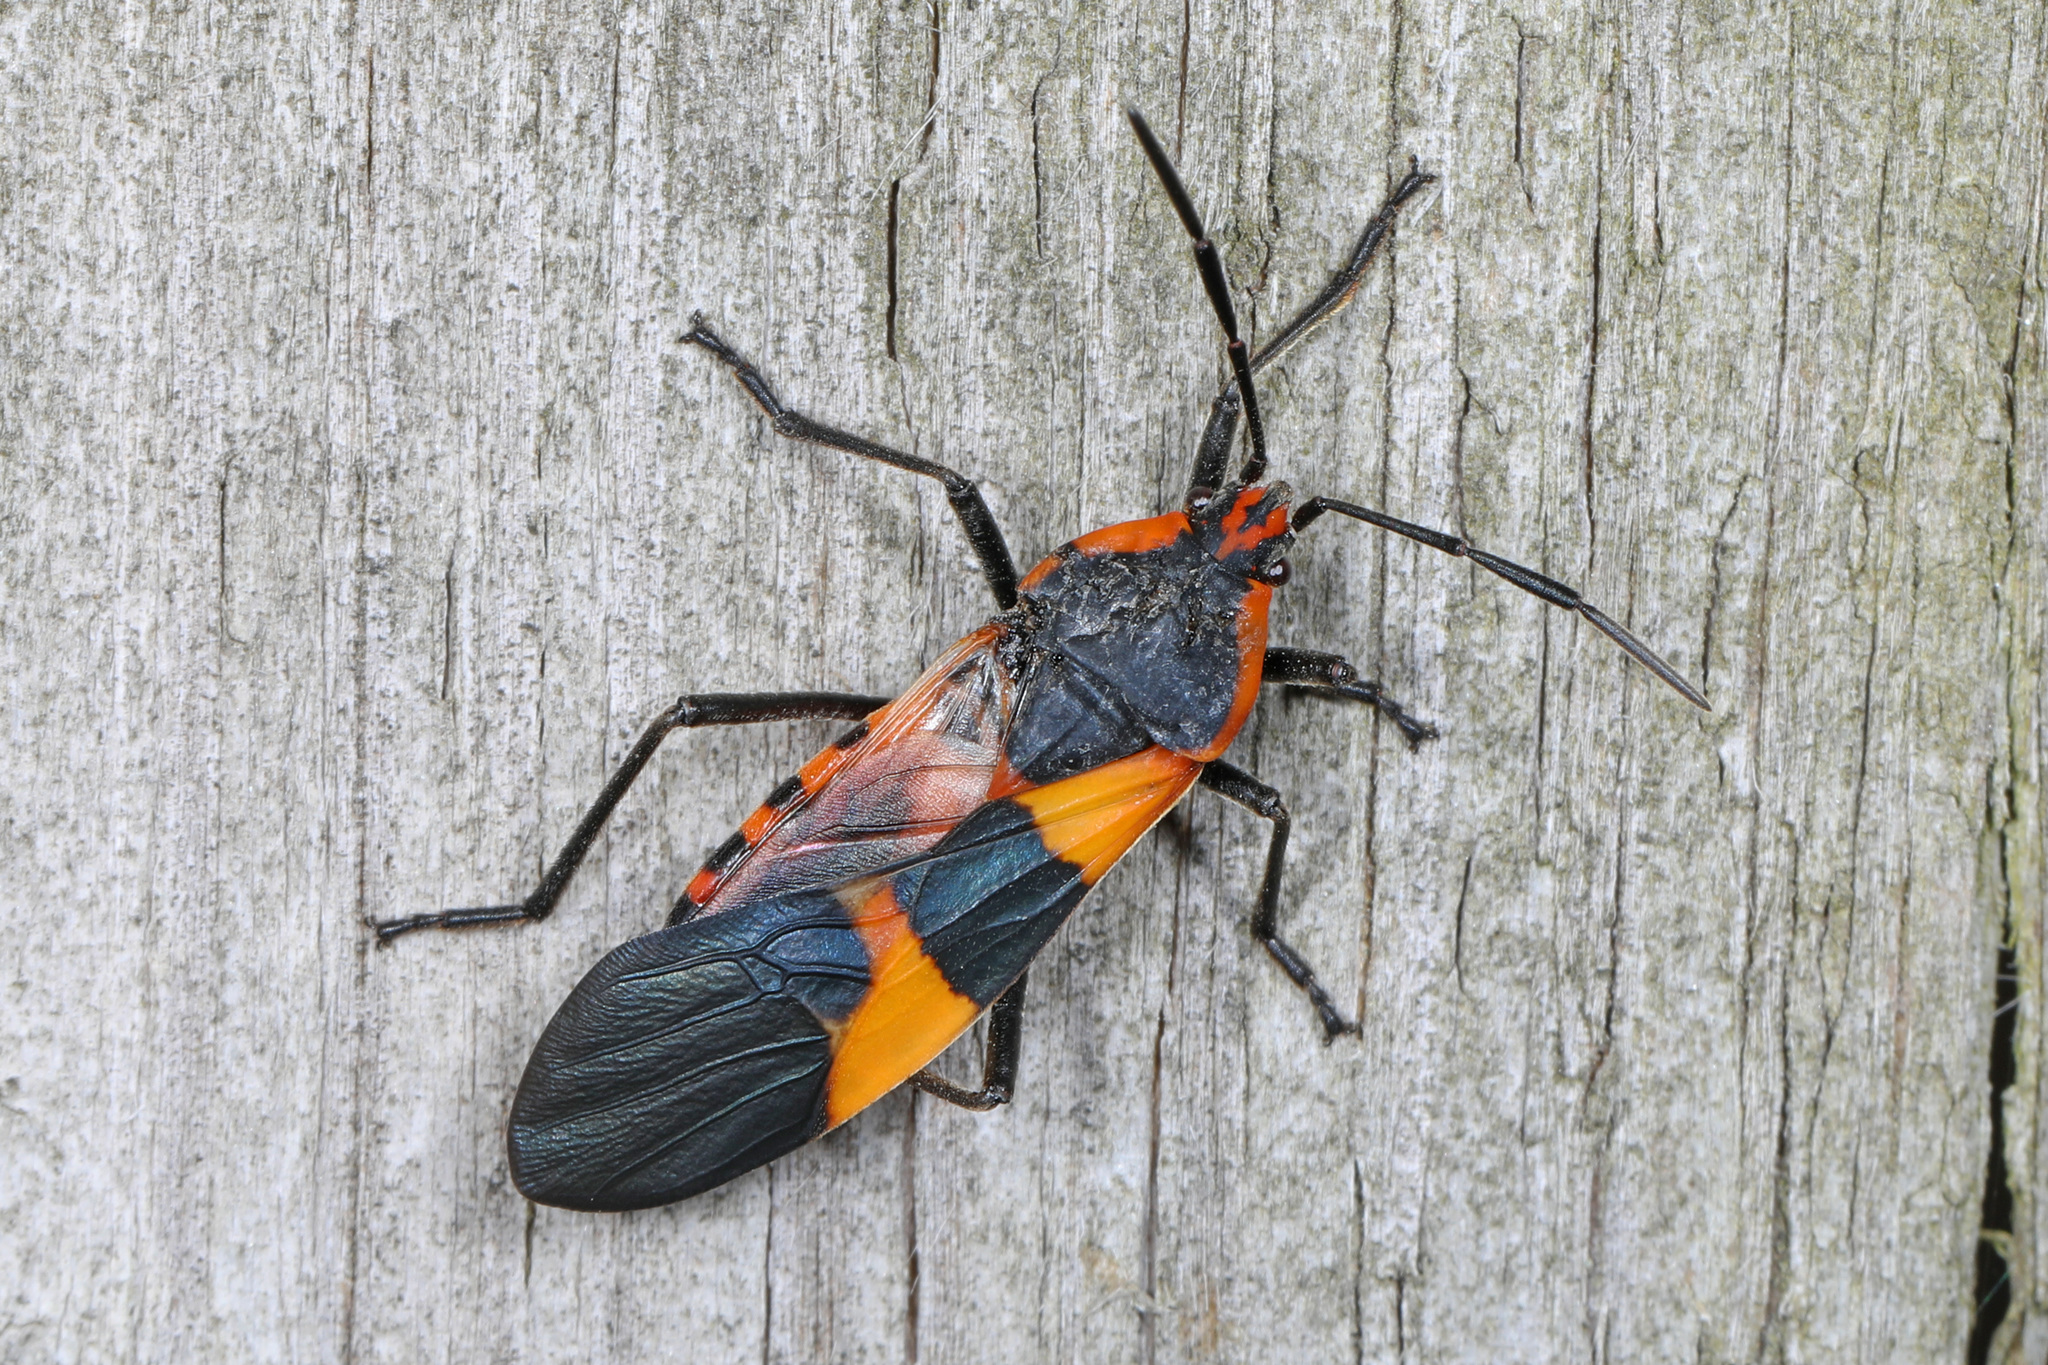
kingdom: Animalia
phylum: Arthropoda
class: Insecta
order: Hemiptera
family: Lygaeidae
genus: Oncopeltus
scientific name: Oncopeltus fasciatus
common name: Large milkweed bug
